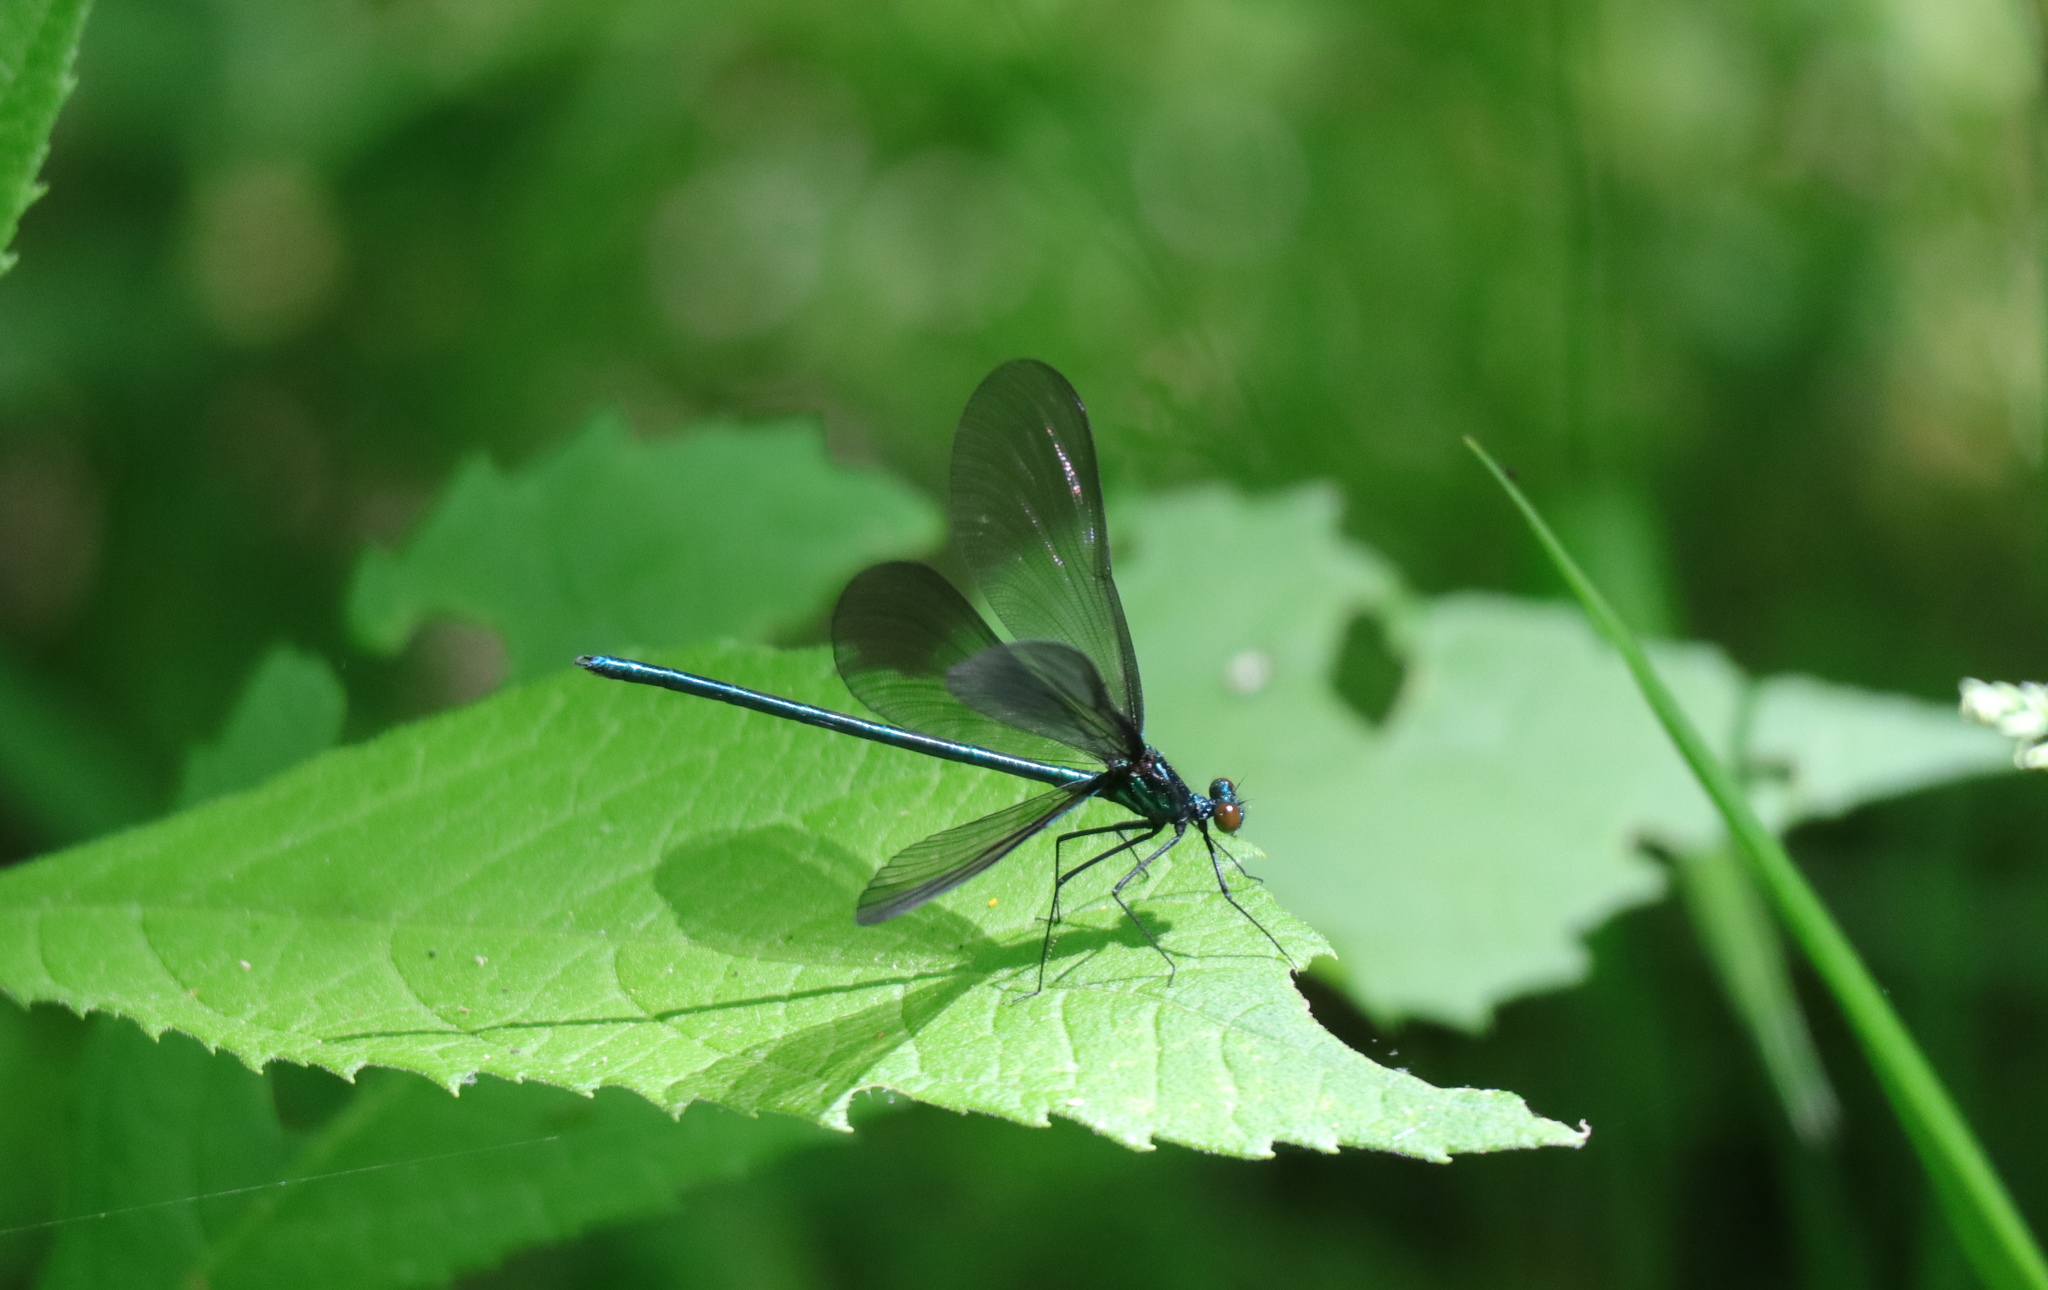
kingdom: Animalia
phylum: Arthropoda
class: Insecta
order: Odonata
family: Calopterygidae
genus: Calopteryx
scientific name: Calopteryx maculata
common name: Ebony jewelwing
